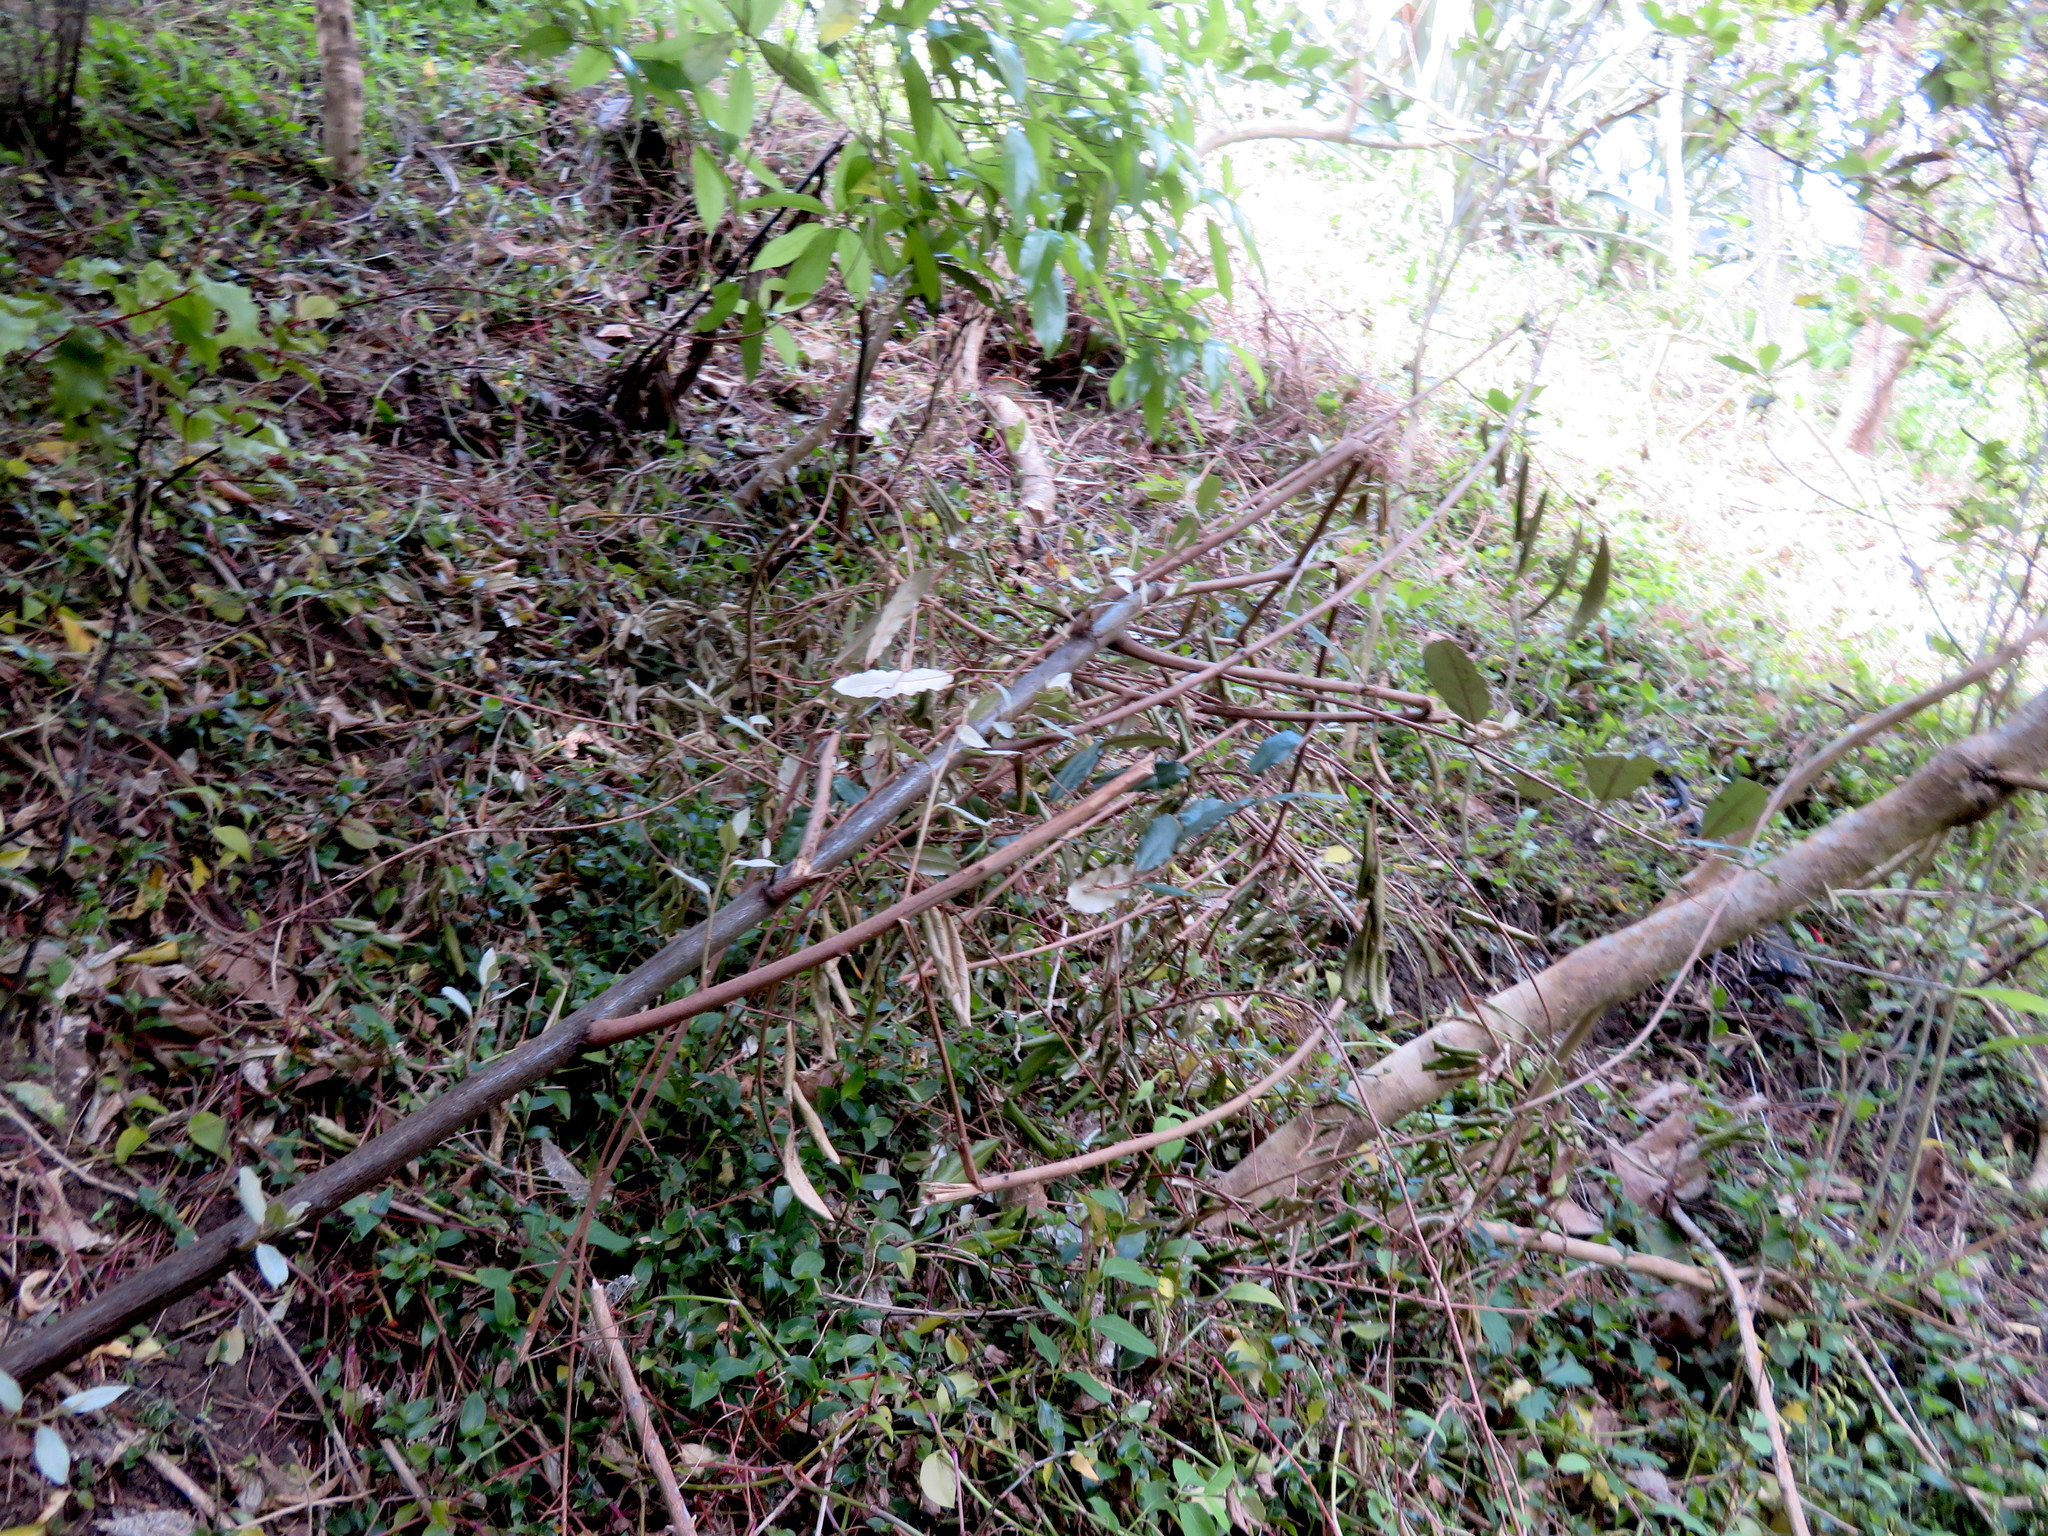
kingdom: Plantae
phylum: Tracheophyta
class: Magnoliopsida
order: Rosales
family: Elaeagnaceae
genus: Elaeagnus
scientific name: Elaeagnus reflexa
